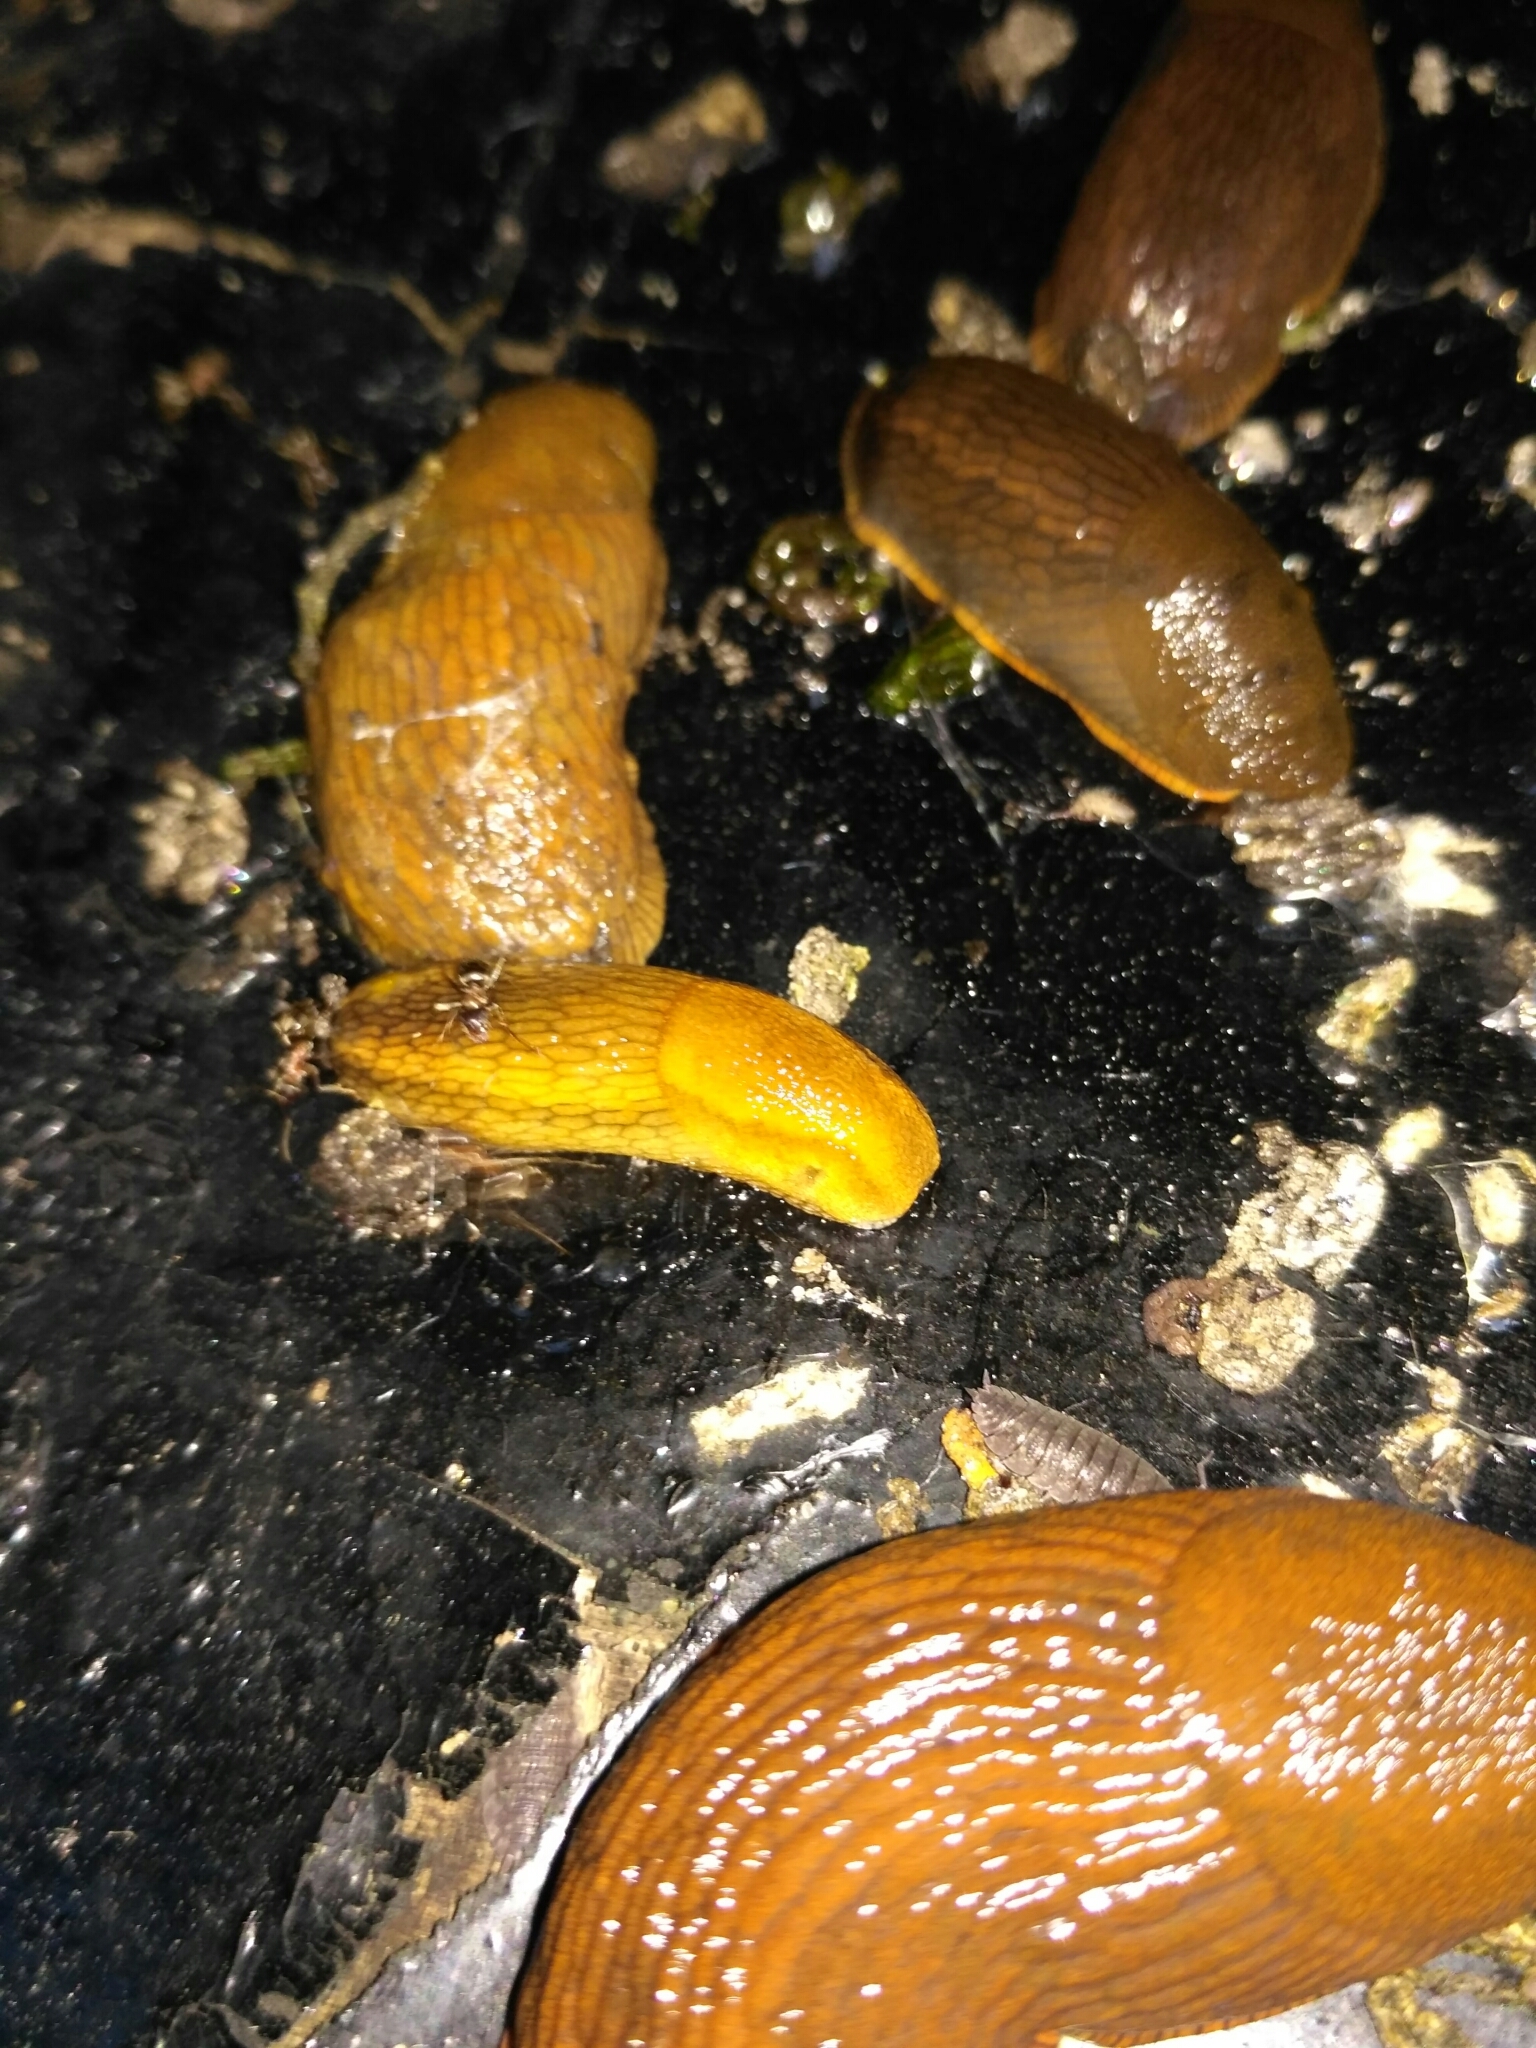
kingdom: Animalia
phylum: Mollusca
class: Gastropoda
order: Stylommatophora
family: Arionidae
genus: Arion
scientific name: Arion fuscus
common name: Northern dusky slug
